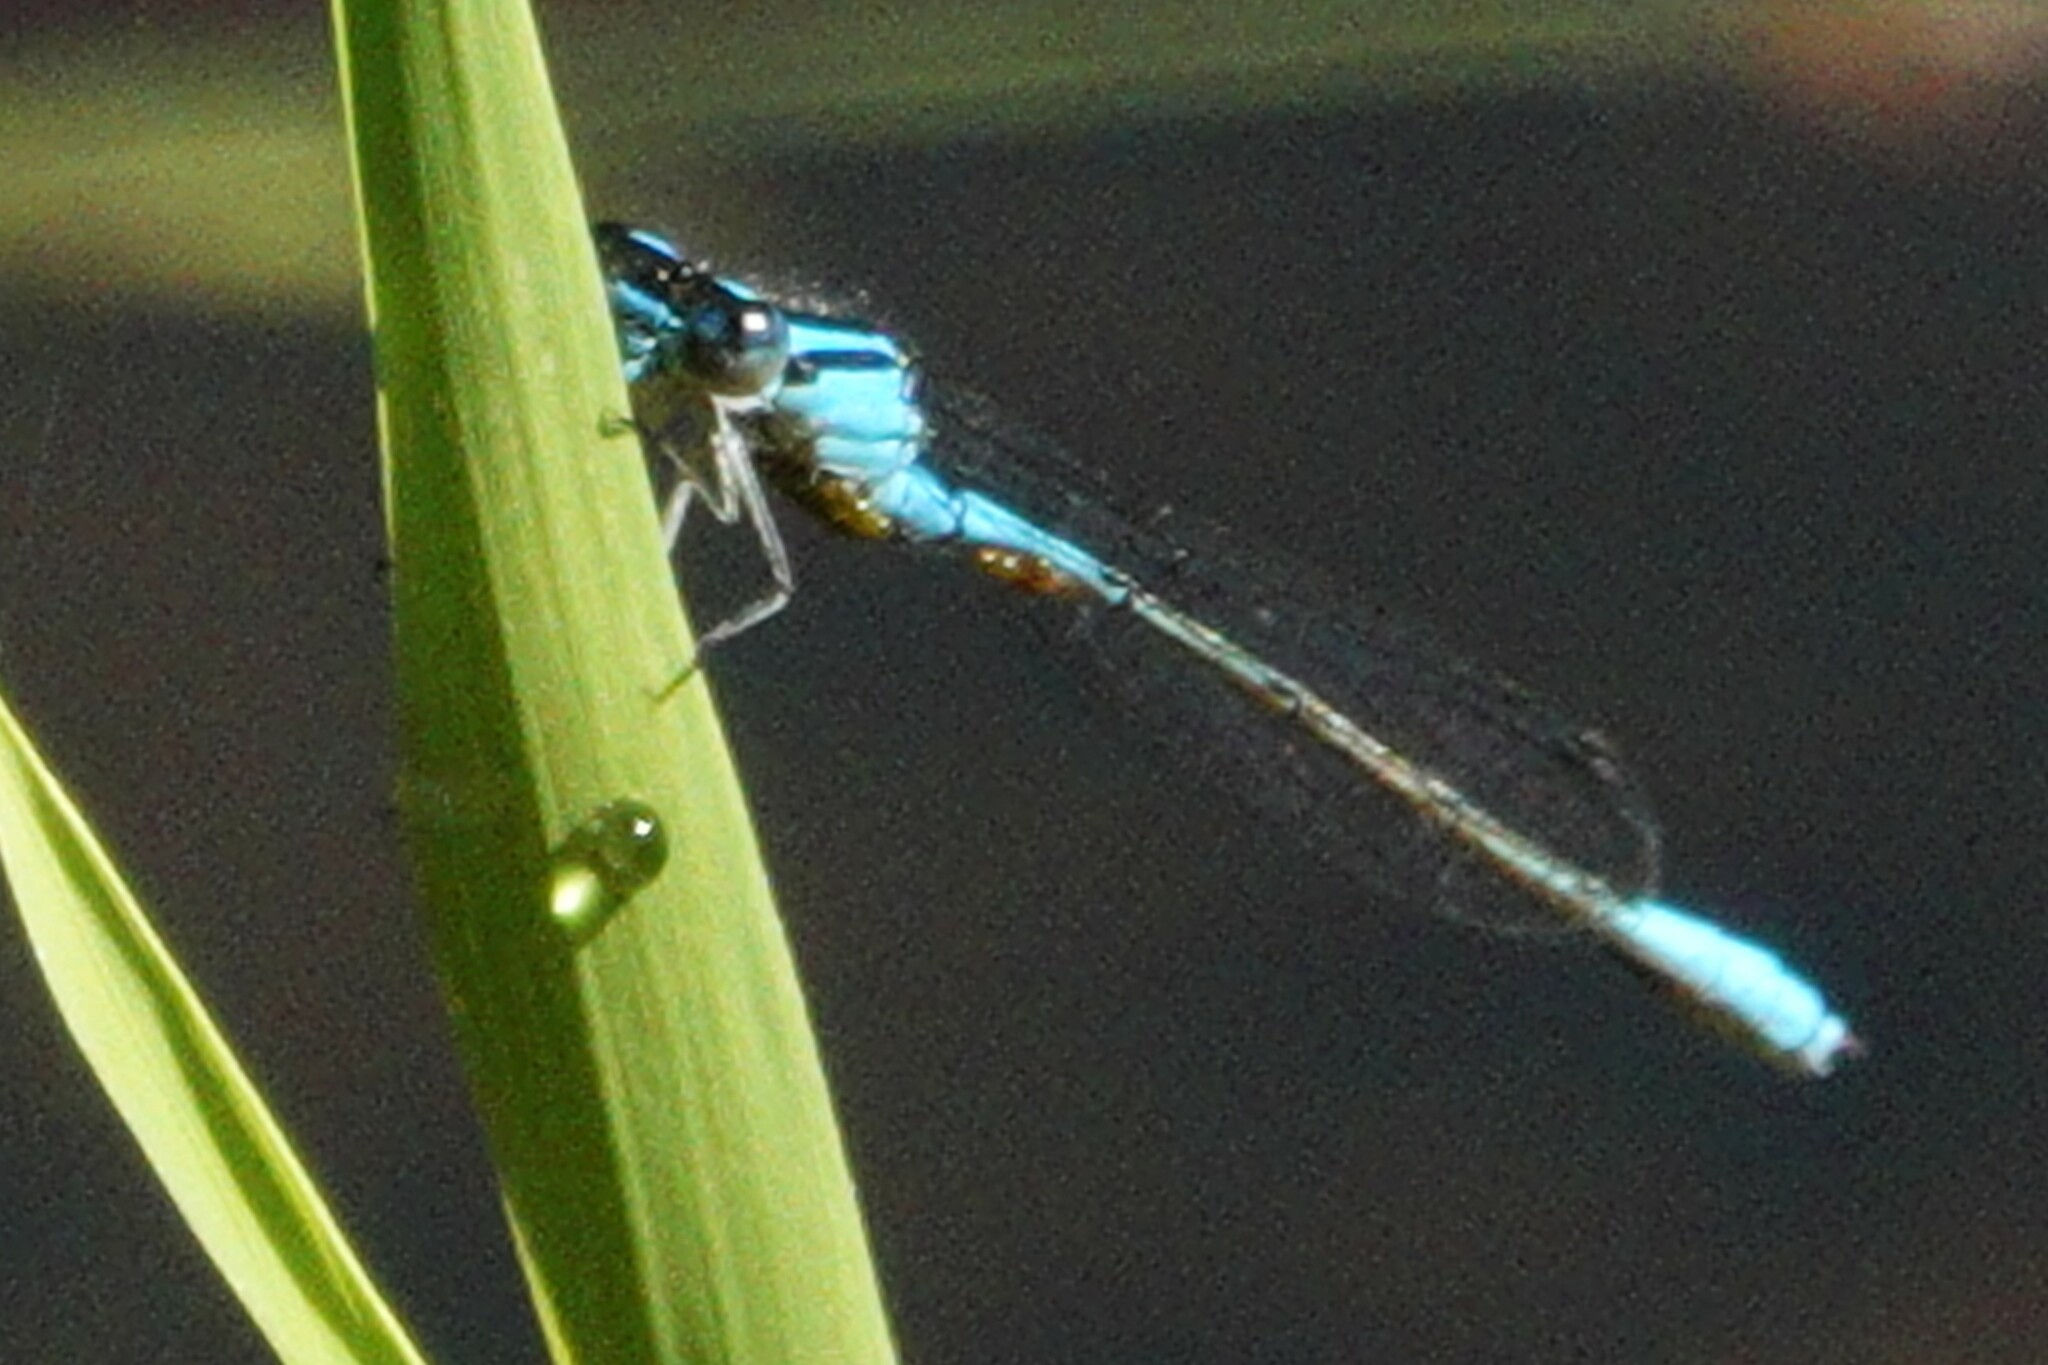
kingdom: Animalia
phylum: Arthropoda
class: Insecta
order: Odonata
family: Coenagrionidae
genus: Enallagma
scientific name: Enallagma aspersum
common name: Azure bluet
